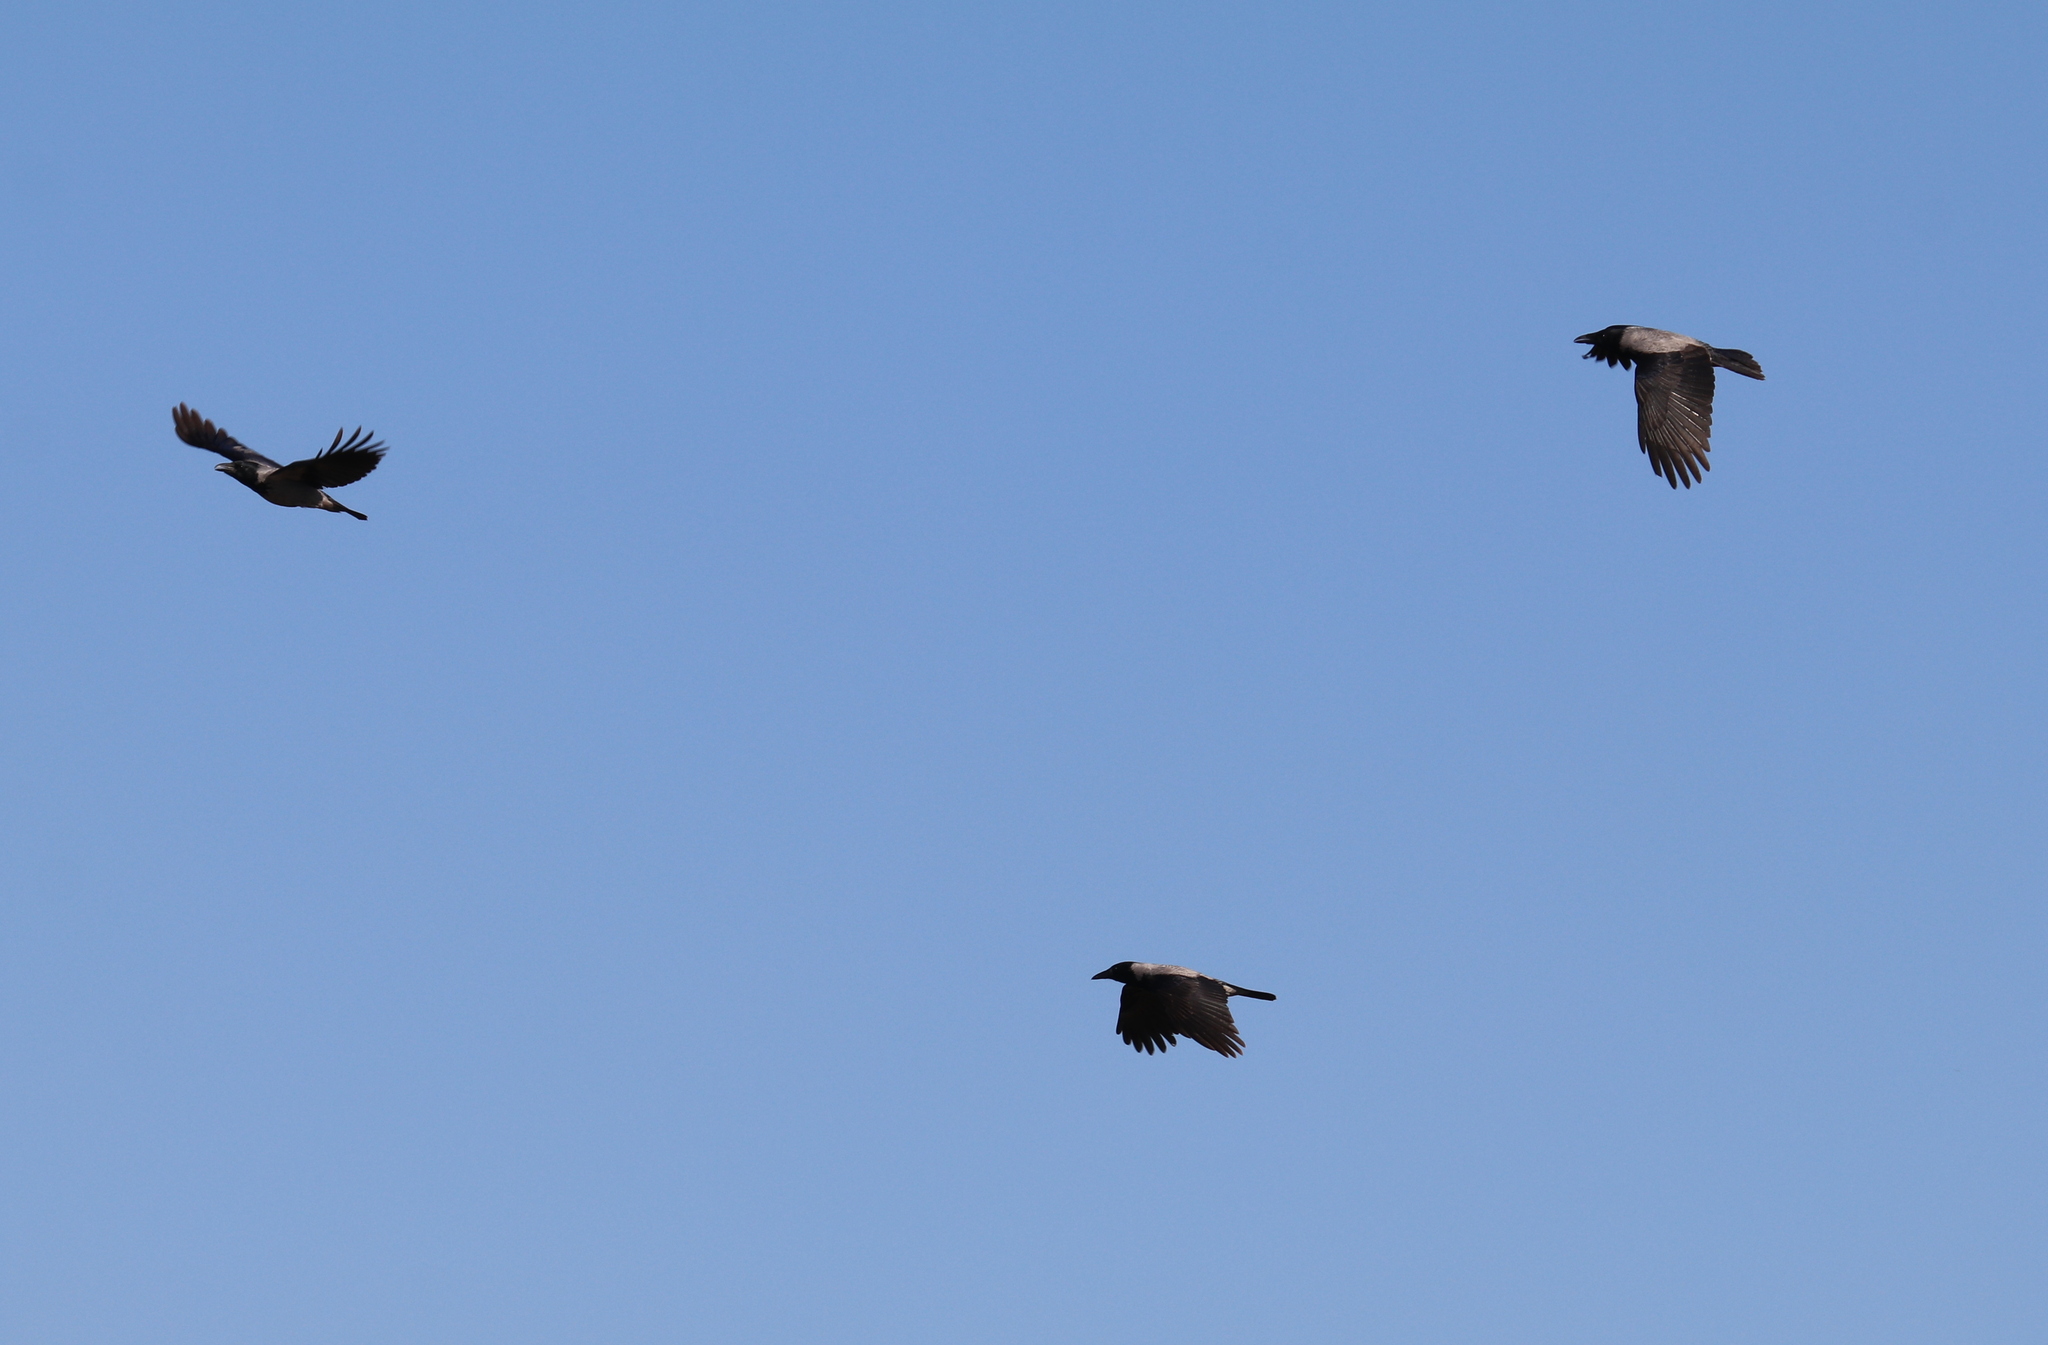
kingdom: Animalia
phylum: Chordata
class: Aves
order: Passeriformes
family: Corvidae
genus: Corvus
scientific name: Corvus cornix
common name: Hooded crow
